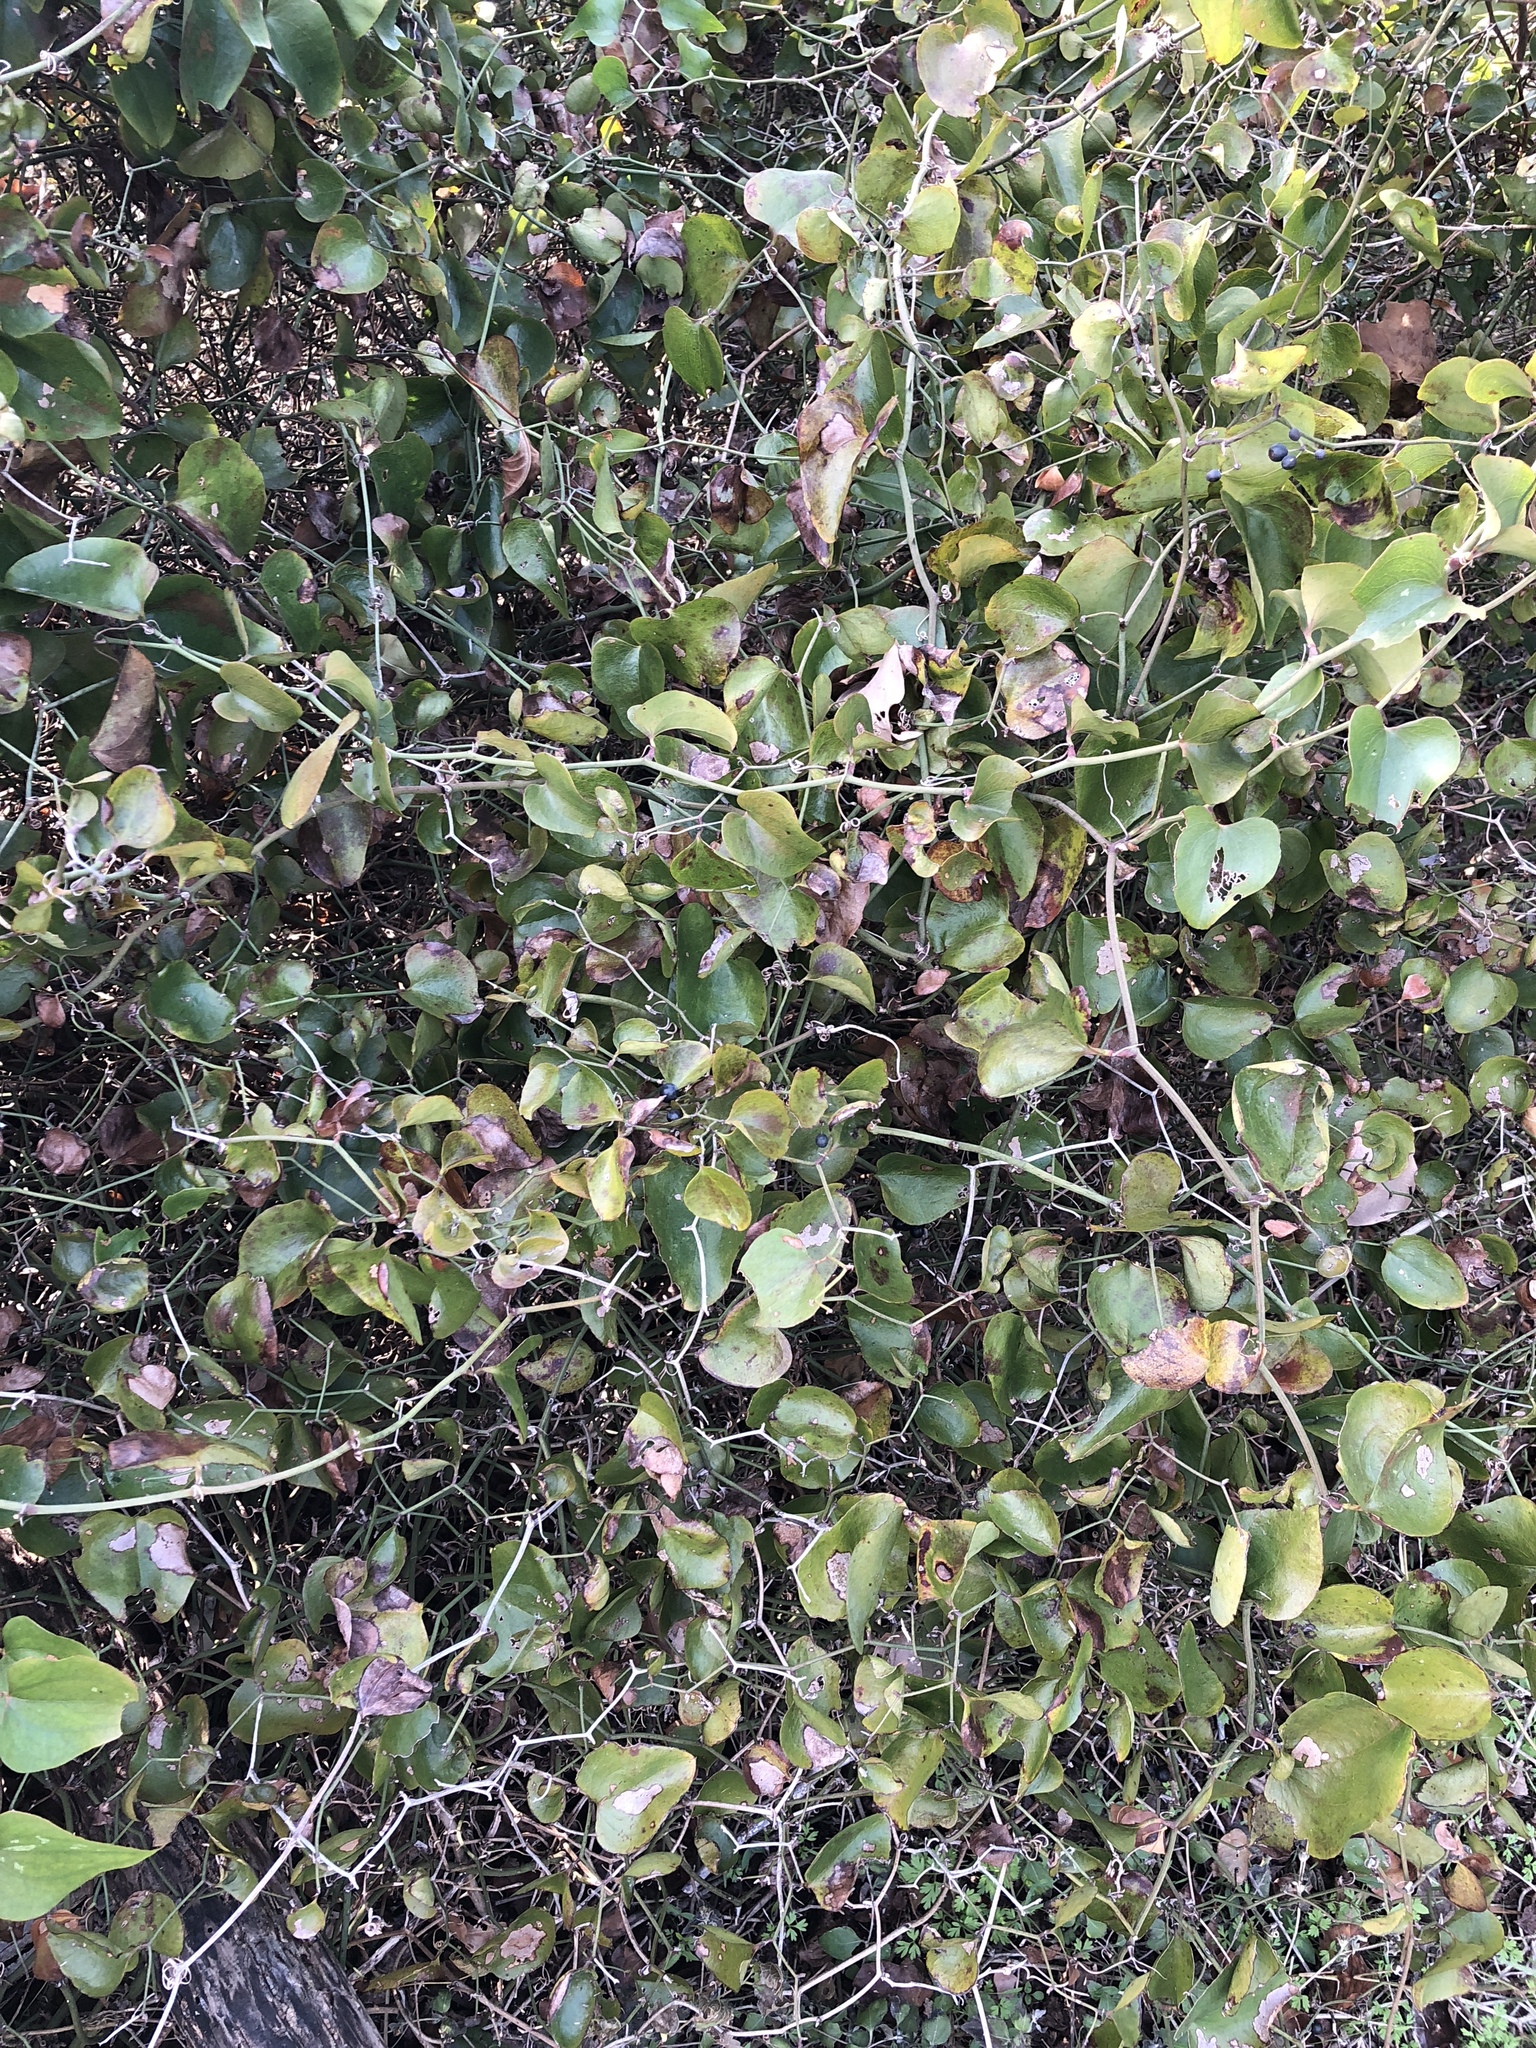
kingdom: Plantae
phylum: Tracheophyta
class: Liliopsida
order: Liliales
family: Smilacaceae
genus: Smilax
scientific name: Smilax bona-nox
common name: Catbrier
